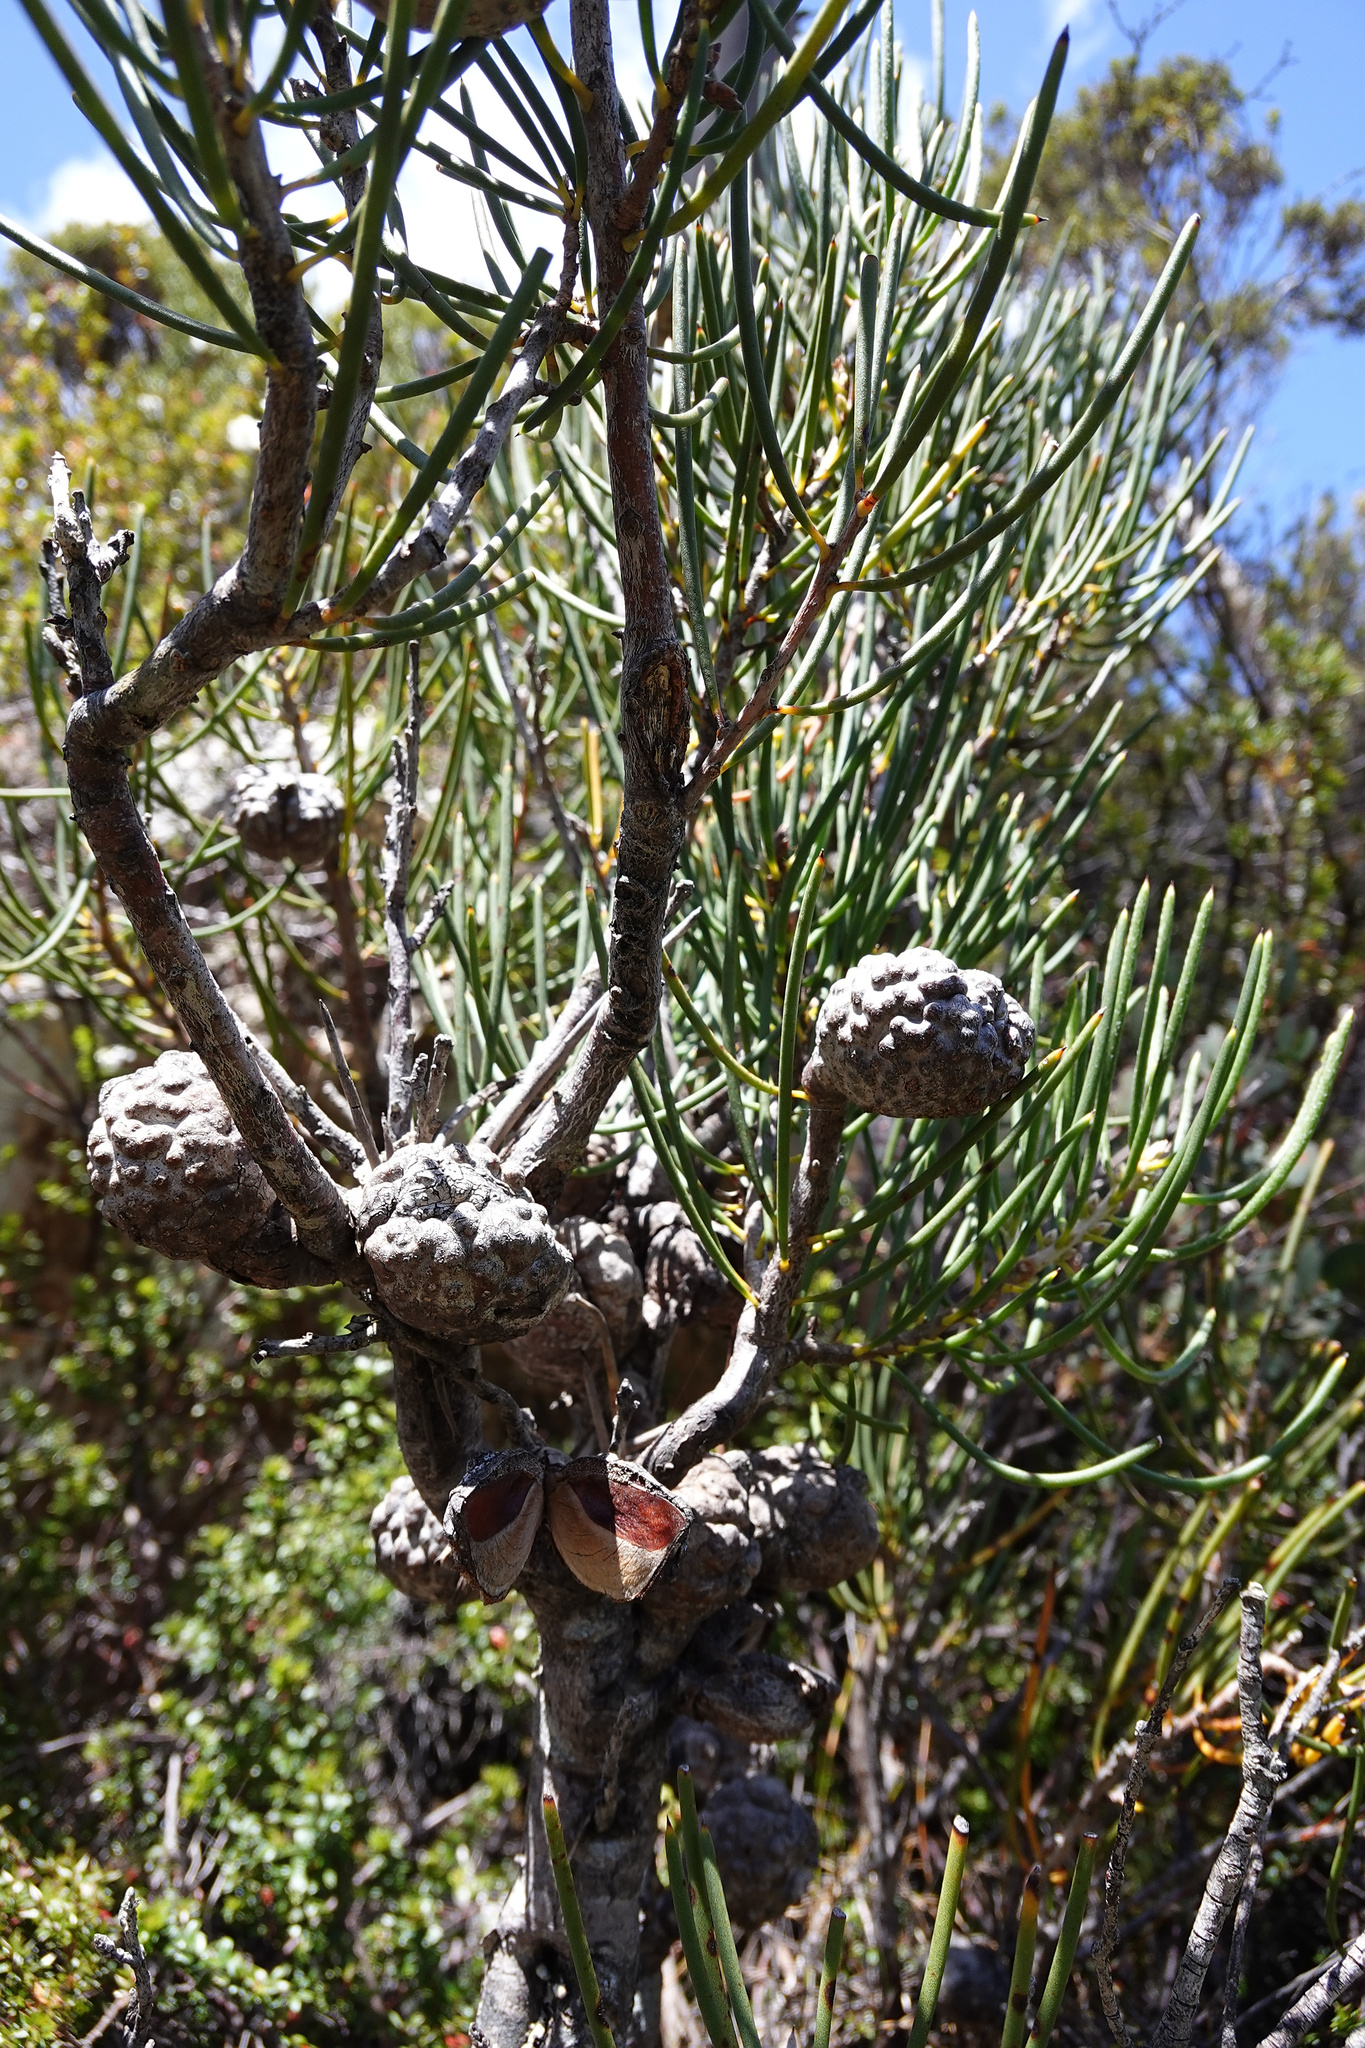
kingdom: Plantae
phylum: Tracheophyta
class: Magnoliopsida
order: Proteales
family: Proteaceae
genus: Hakea
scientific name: Hakea lissosperma
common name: Mountain needlewood
